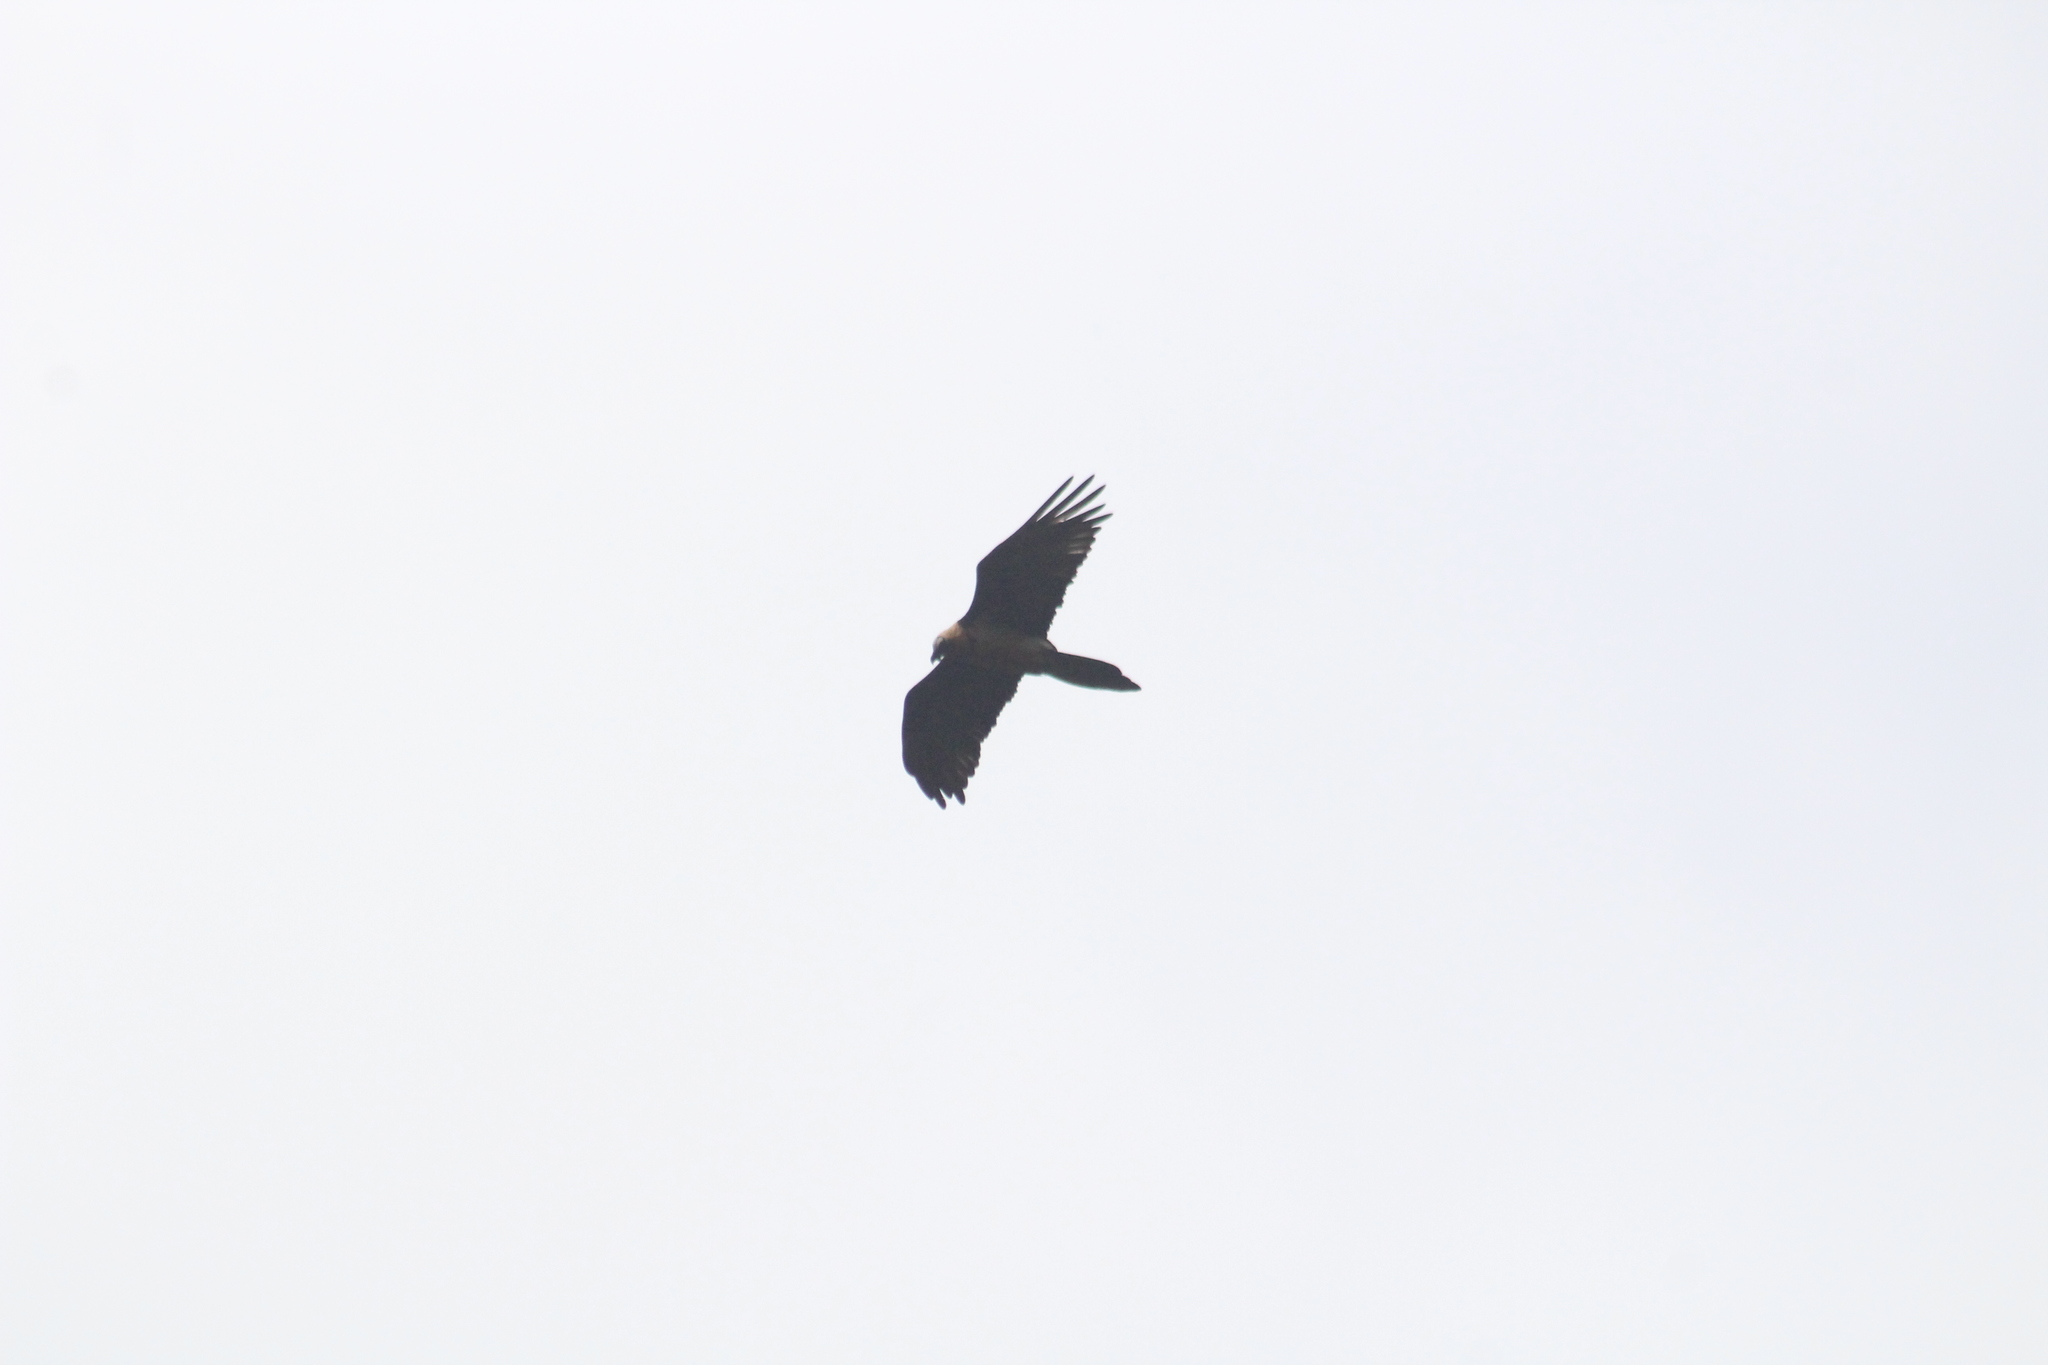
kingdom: Animalia
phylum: Chordata
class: Aves
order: Accipitriformes
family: Accipitridae
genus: Gypaetus
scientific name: Gypaetus barbatus
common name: Bearded vulture
